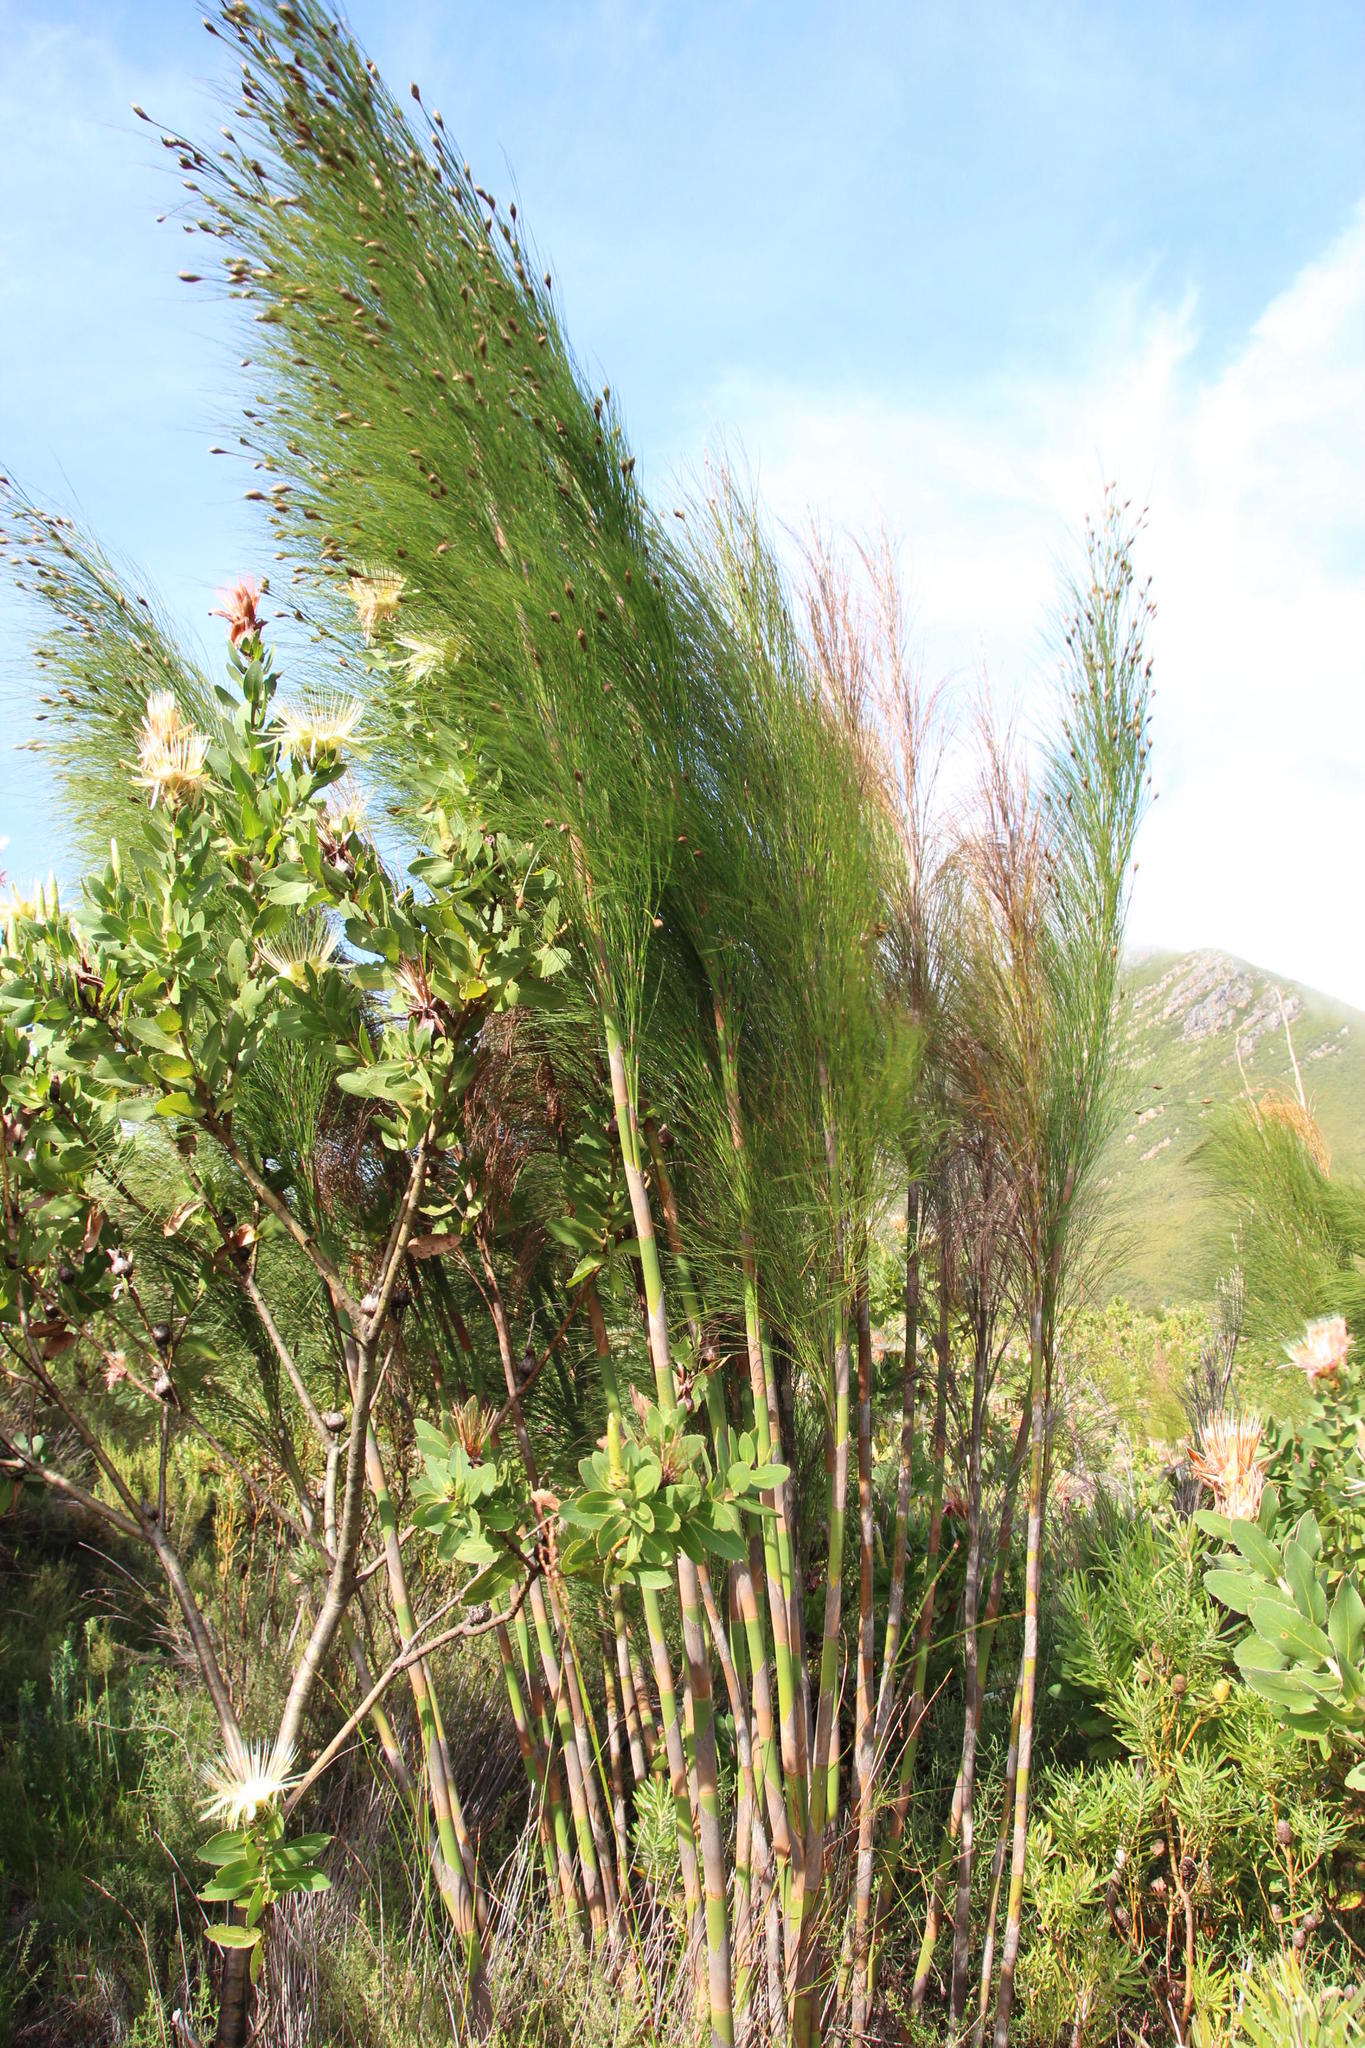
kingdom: Plantae
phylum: Tracheophyta
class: Liliopsida
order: Poales
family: Restionaceae
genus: Cannomois
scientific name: Cannomois grandis
